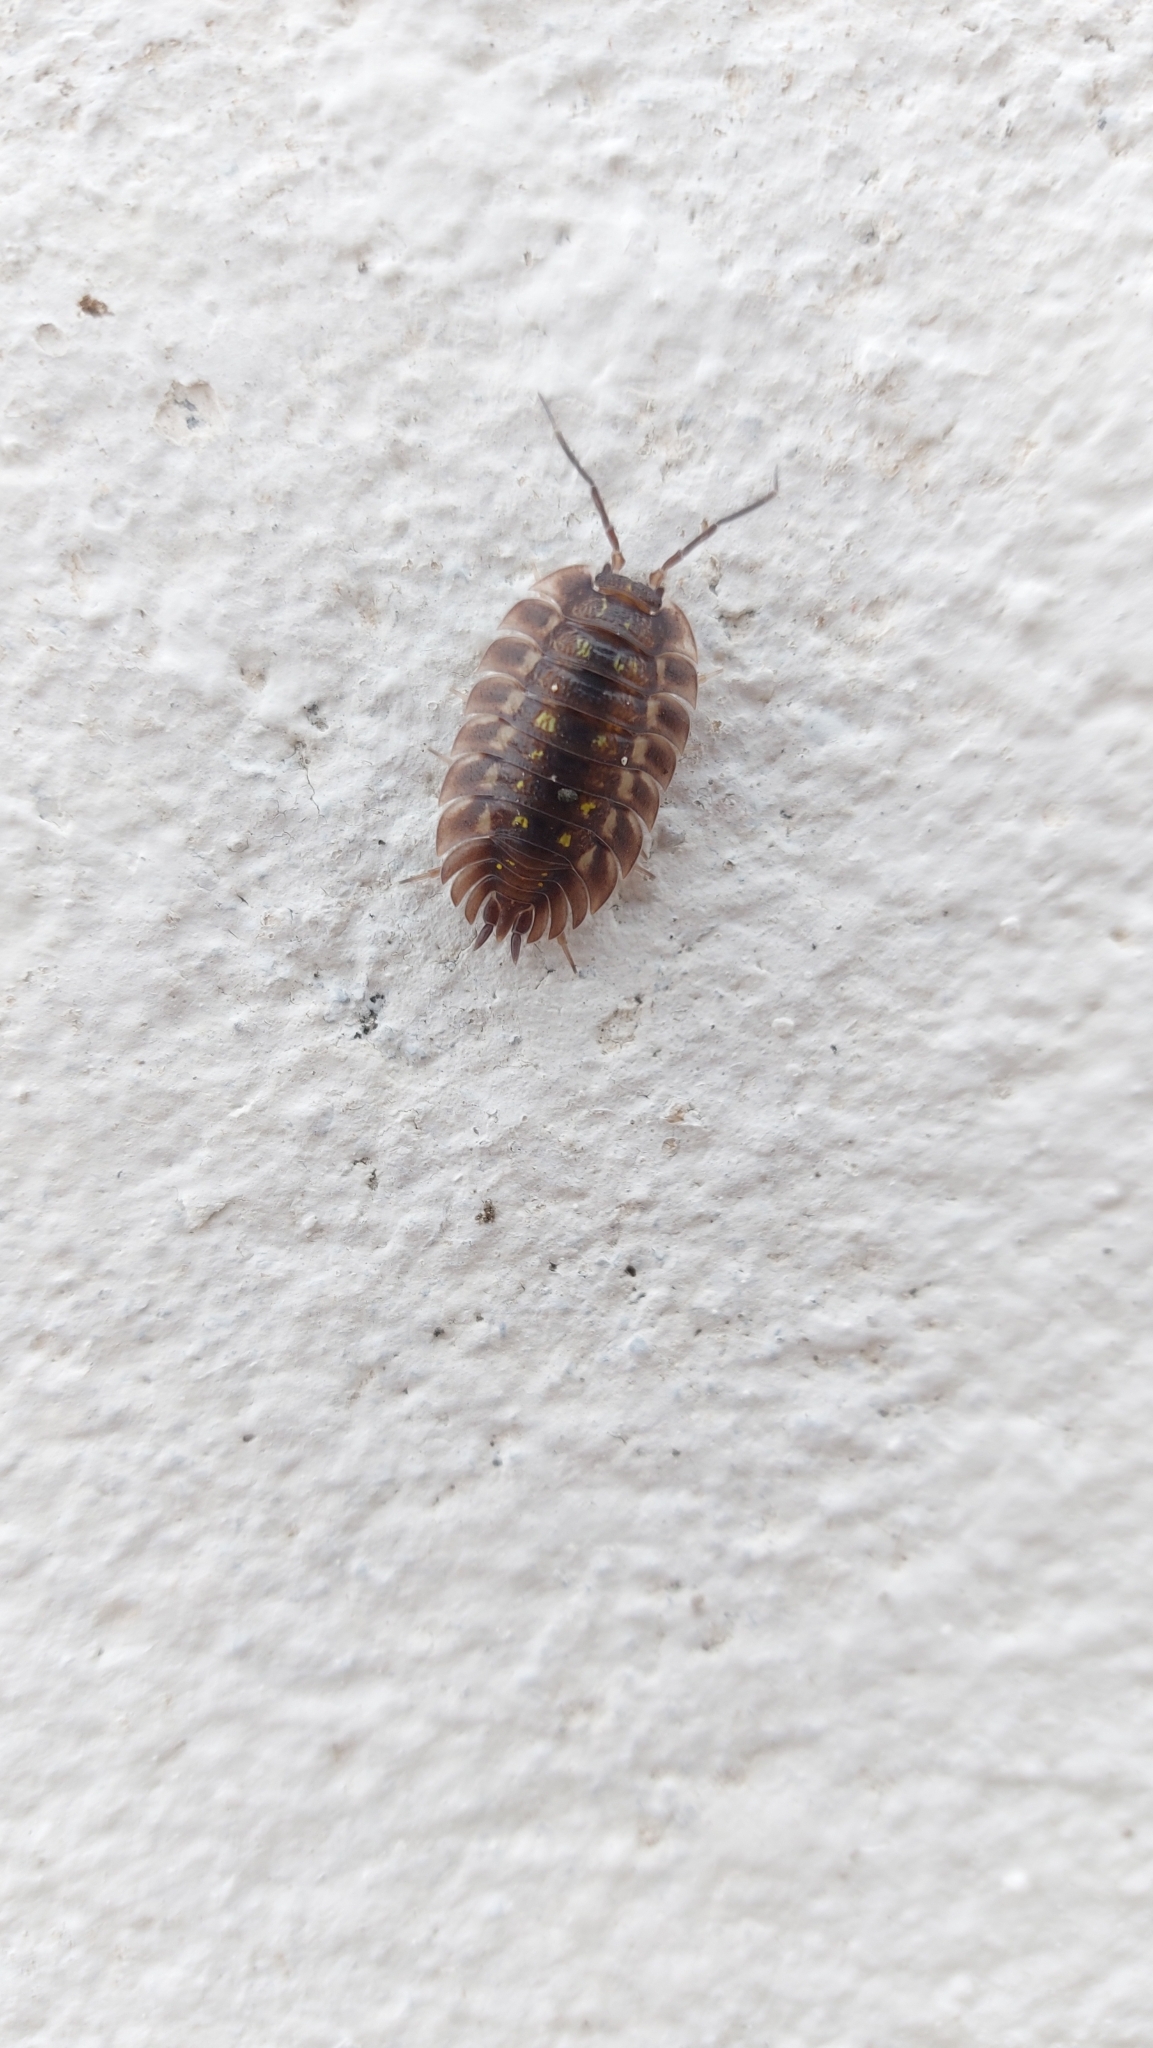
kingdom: Animalia
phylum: Arthropoda
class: Malacostraca
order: Isopoda
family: Oniscidae
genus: Oniscus
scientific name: Oniscus asellus
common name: Common shiny woodlouse
